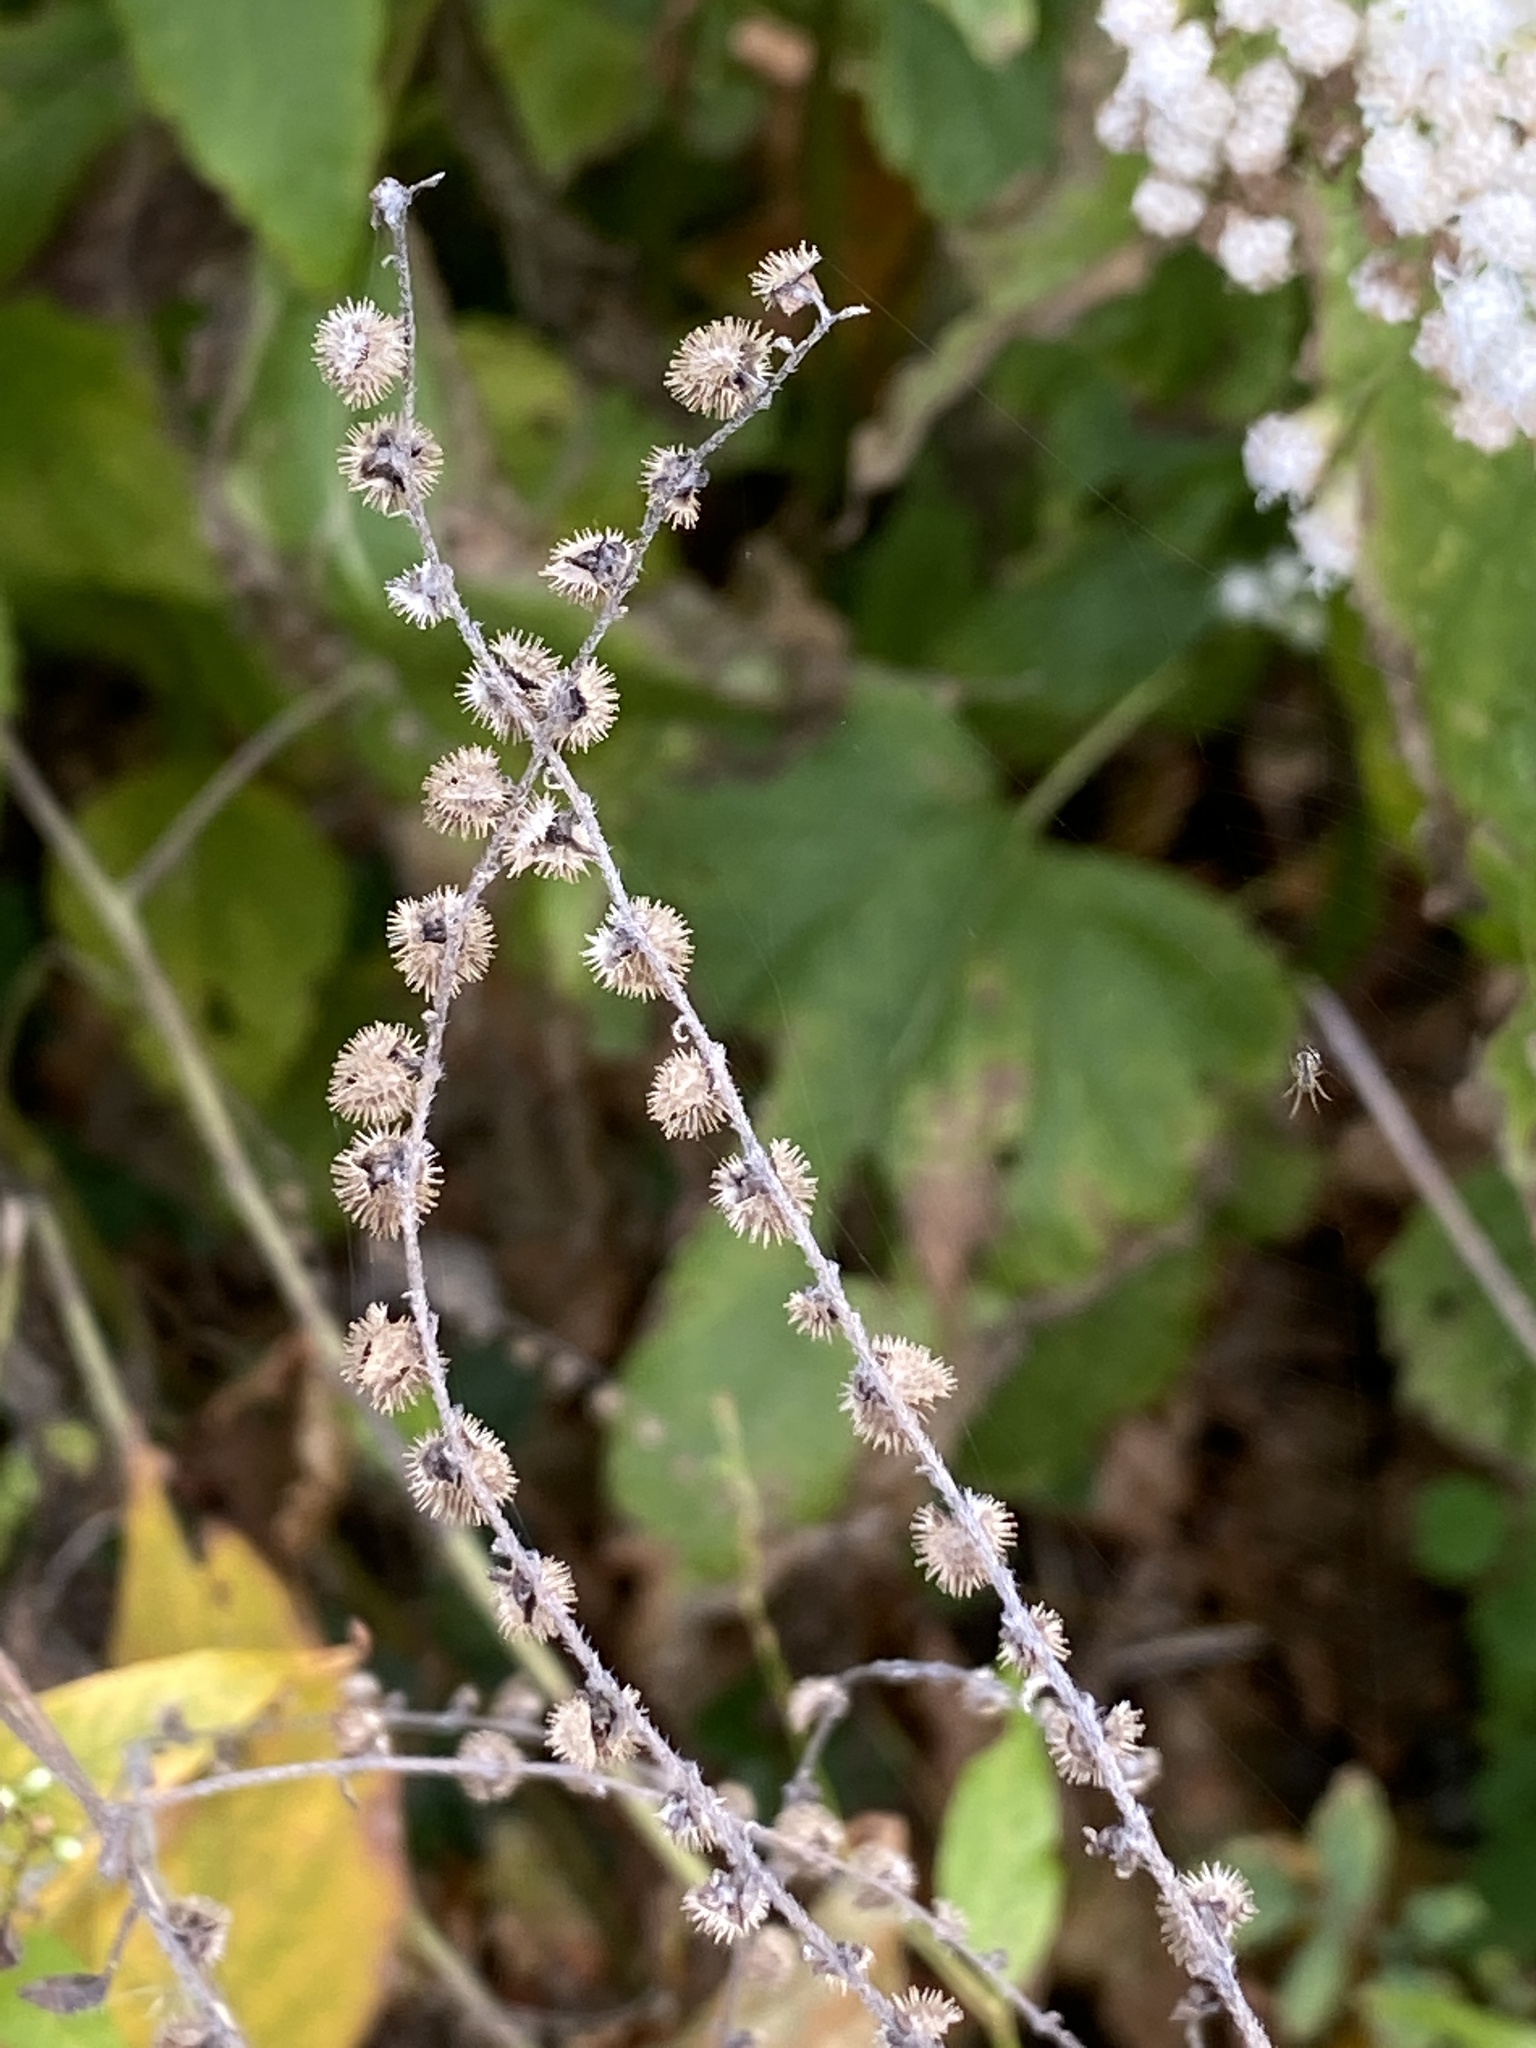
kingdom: Plantae
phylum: Tracheophyta
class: Magnoliopsida
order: Boraginales
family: Boraginaceae
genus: Hackelia
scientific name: Hackelia virginiana
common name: Beggar's-lice
